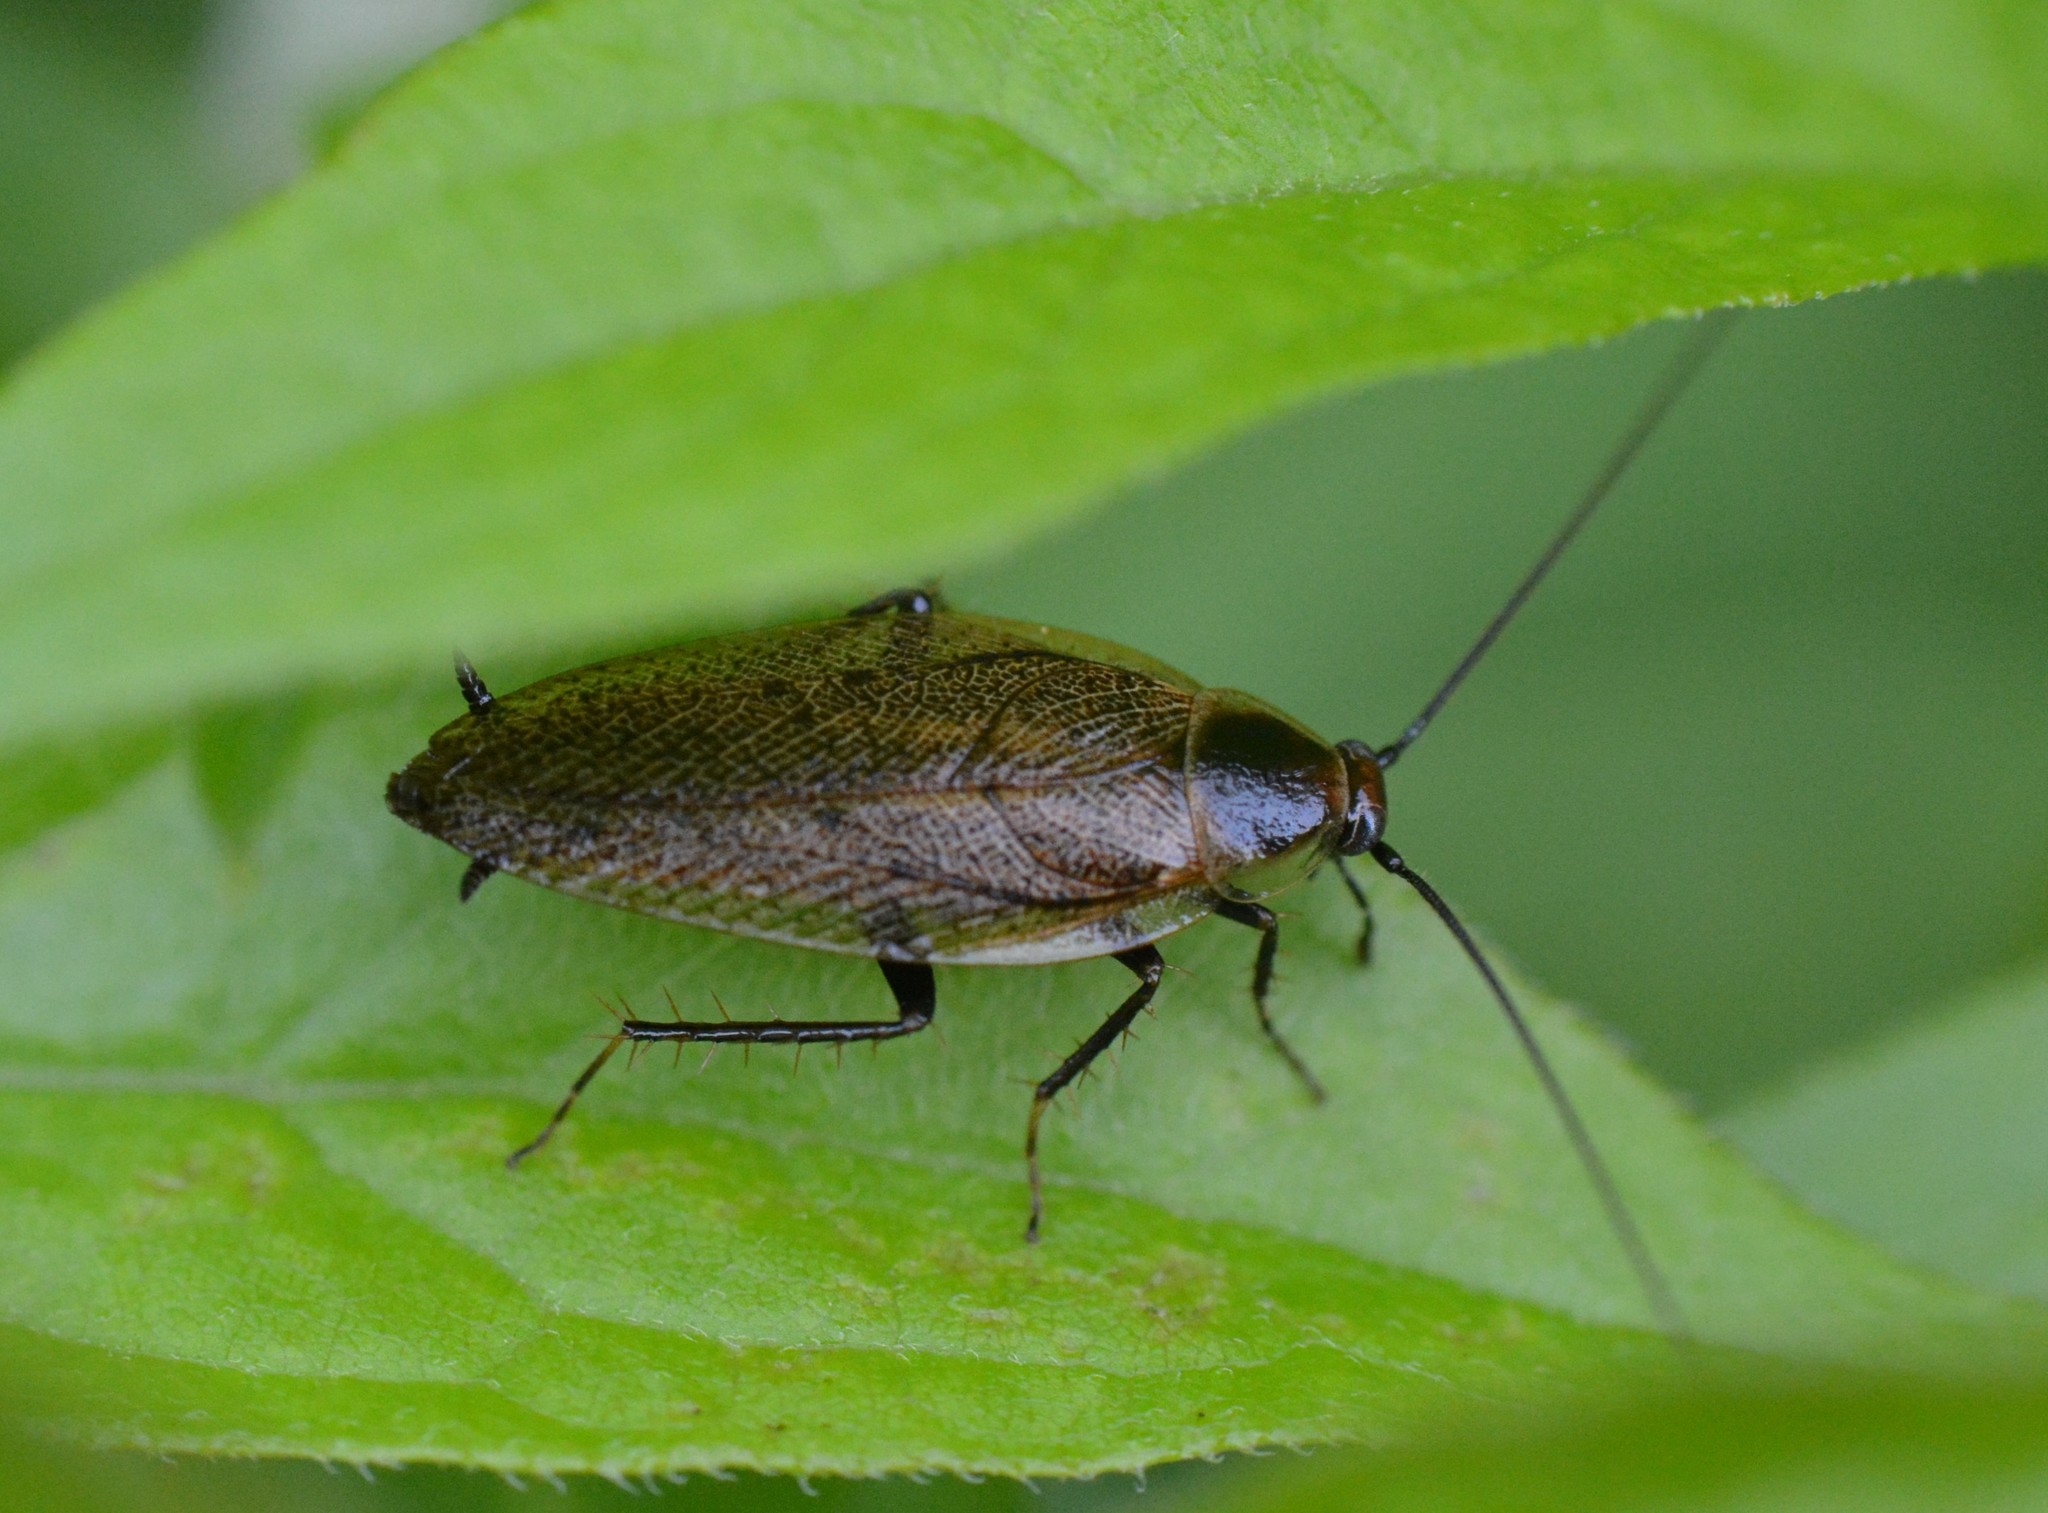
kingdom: Animalia
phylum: Arthropoda
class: Insecta
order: Blattodea
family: Ectobiidae
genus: Ectobius
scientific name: Ectobius lapponicus
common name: Dusky cockroach
